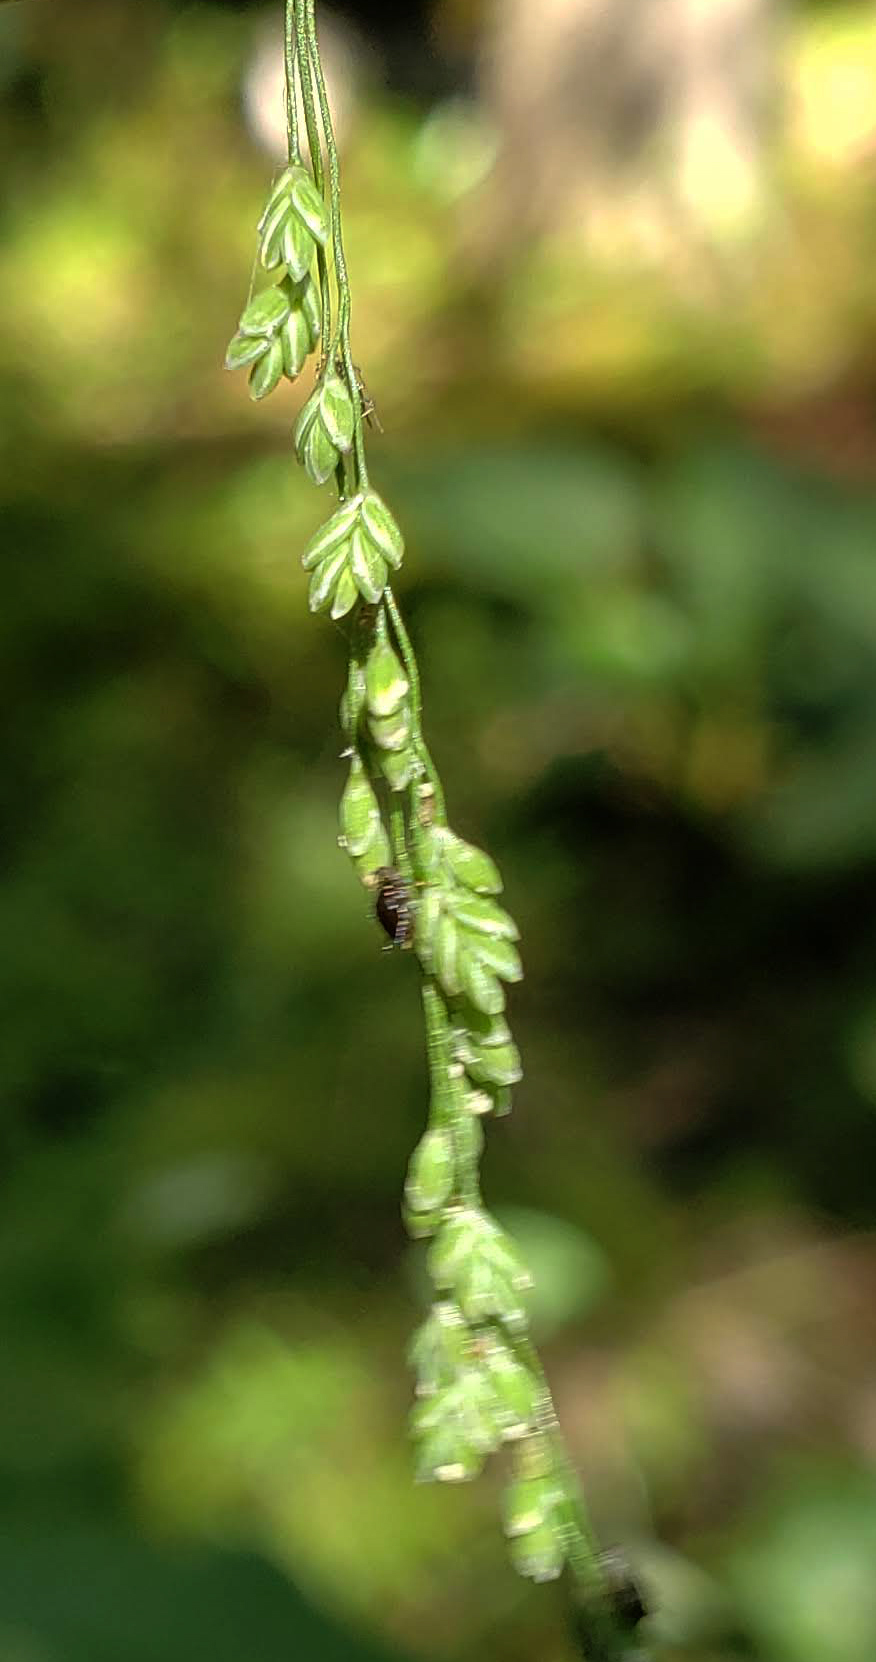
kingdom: Plantae
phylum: Tracheophyta
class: Liliopsida
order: Poales
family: Poaceae
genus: Glyceria
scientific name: Glyceria striata
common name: Fowl manna grass
